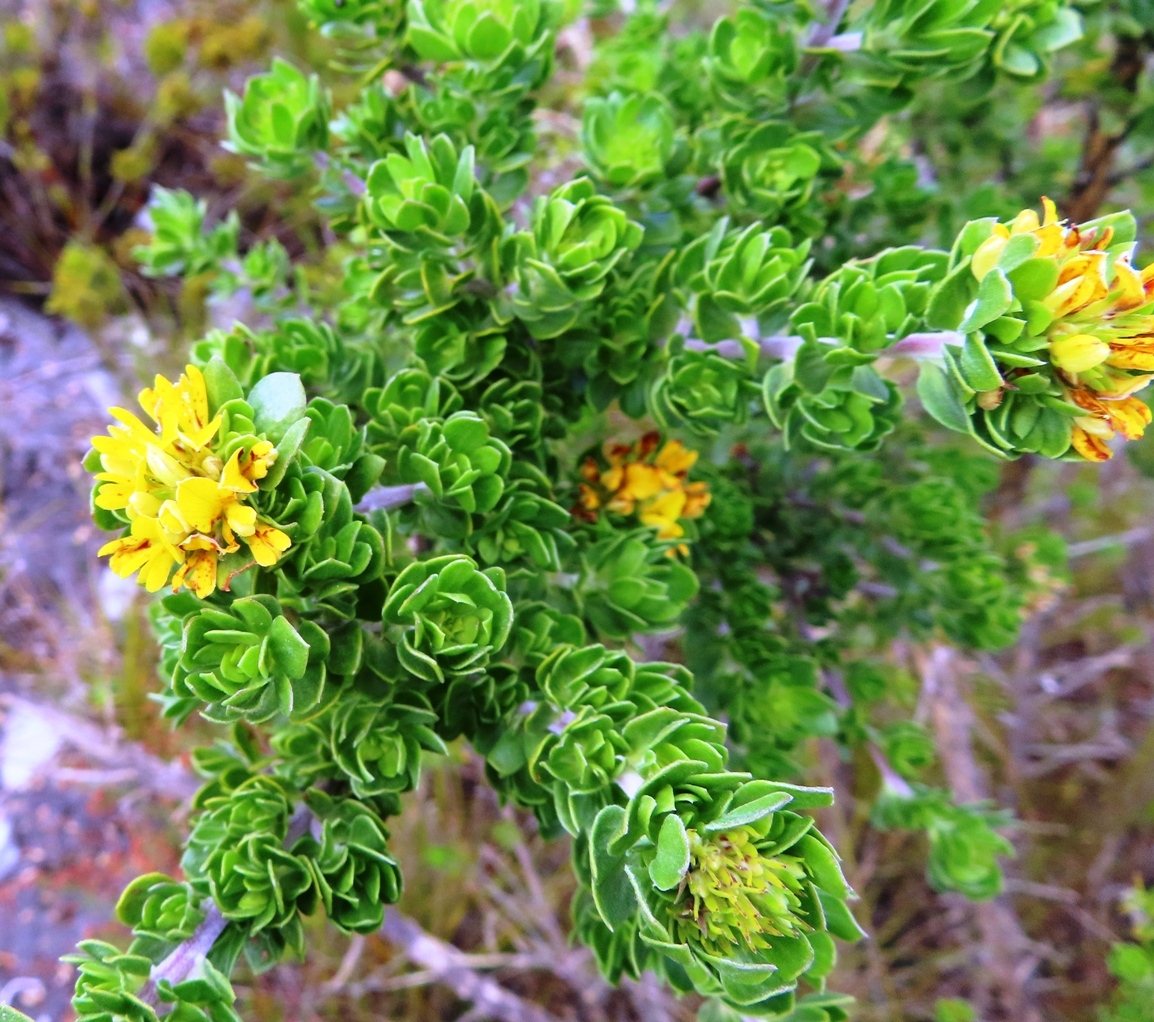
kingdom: Plantae
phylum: Tracheophyta
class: Magnoliopsida
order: Fabales
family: Fabaceae
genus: Aspalathus
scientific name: Aspalathus securifolia
